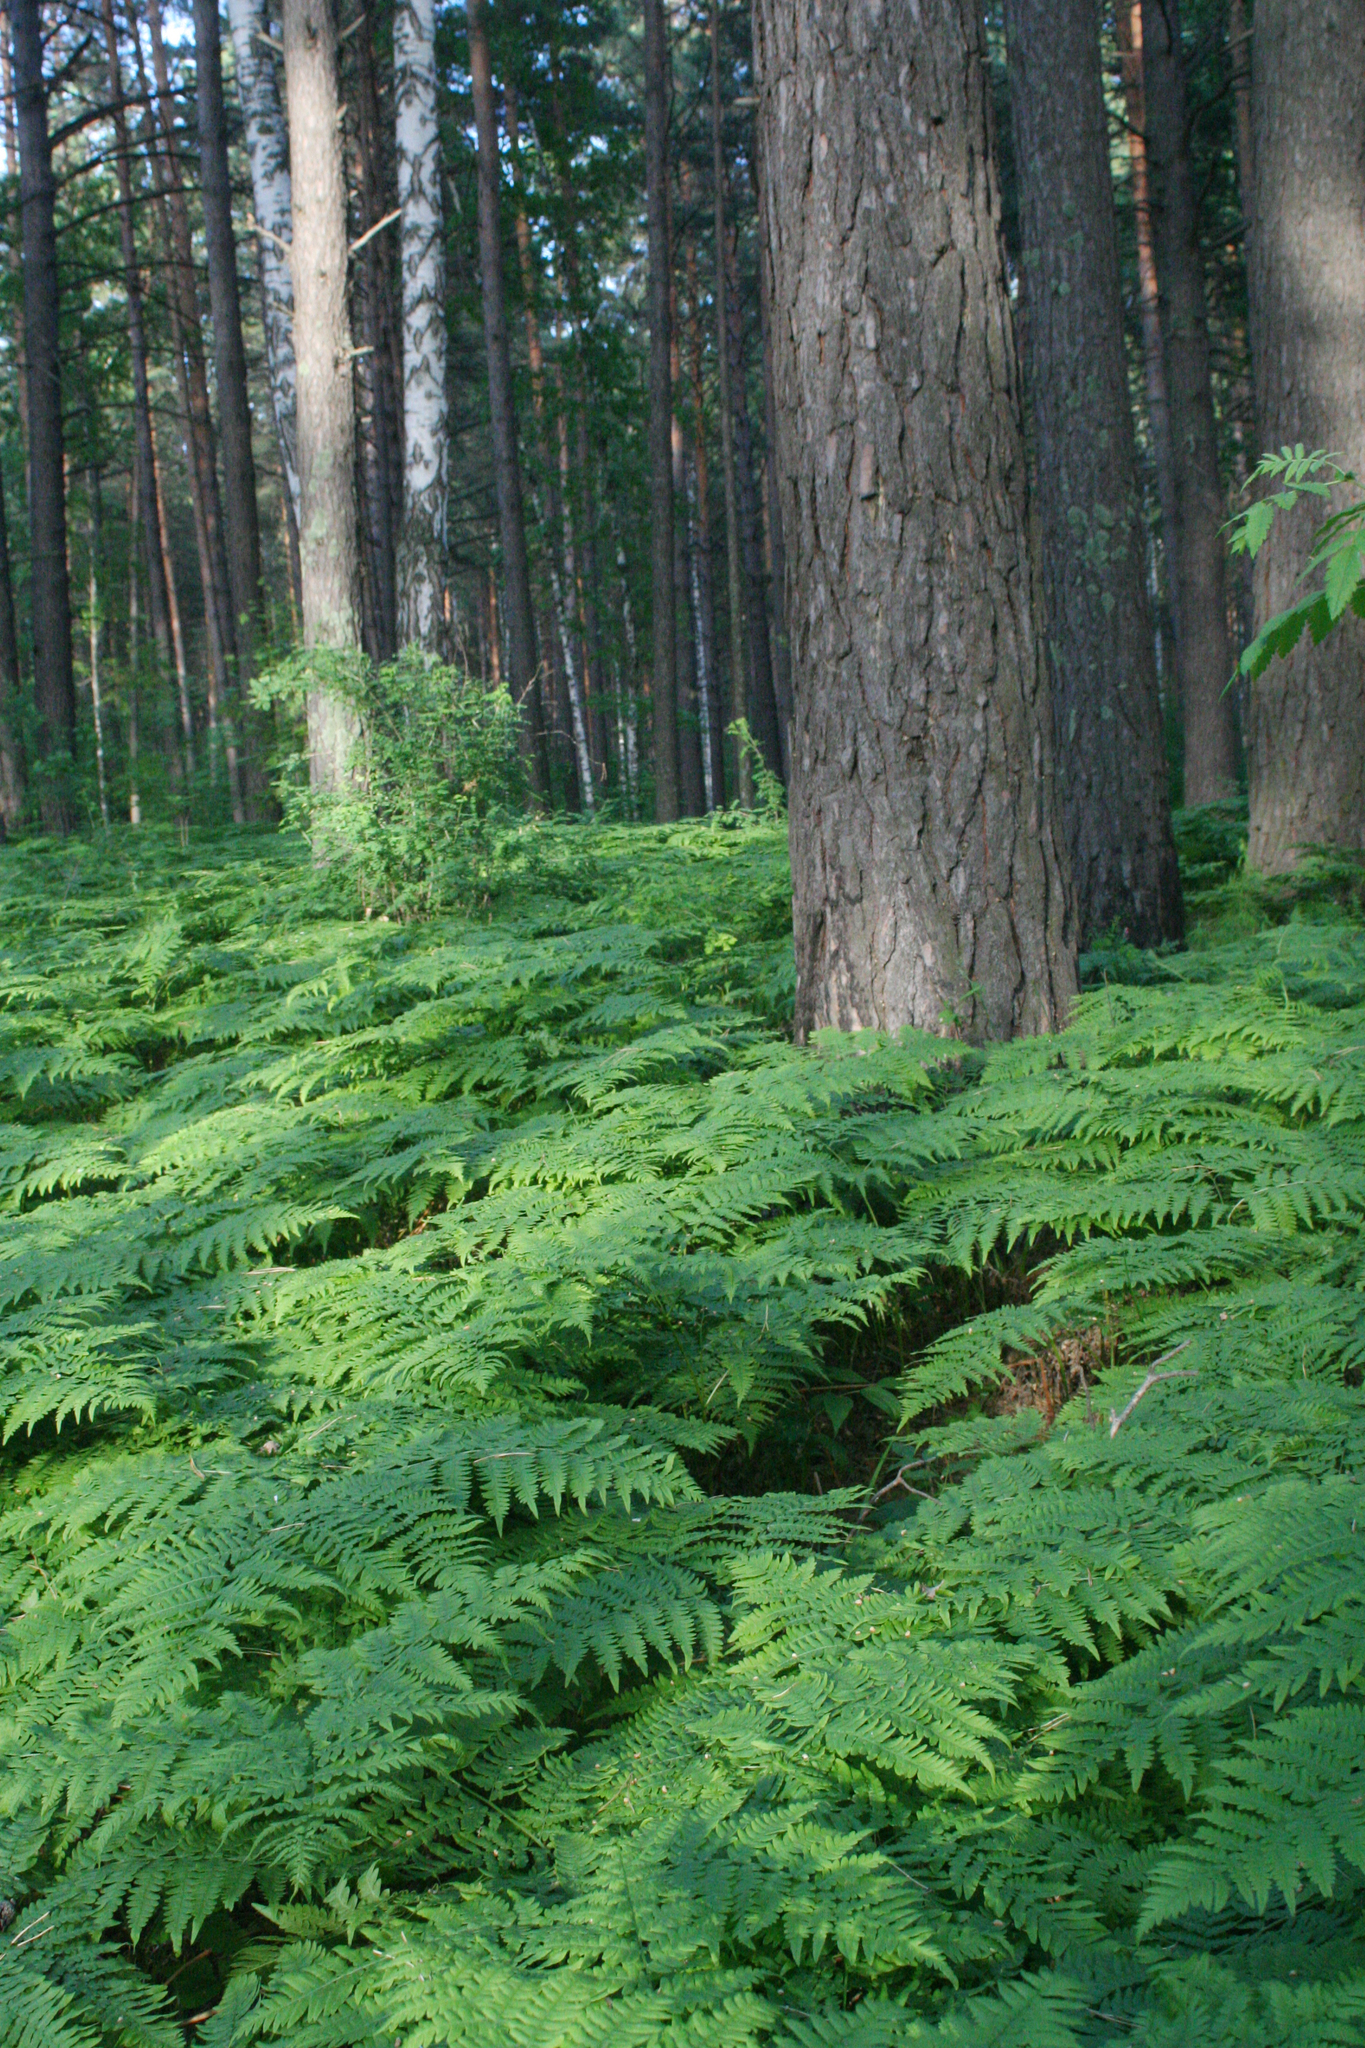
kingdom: Plantae
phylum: Tracheophyta
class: Pinopsida
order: Pinales
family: Pinaceae
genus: Pinus
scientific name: Pinus sylvestris
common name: Scots pine
